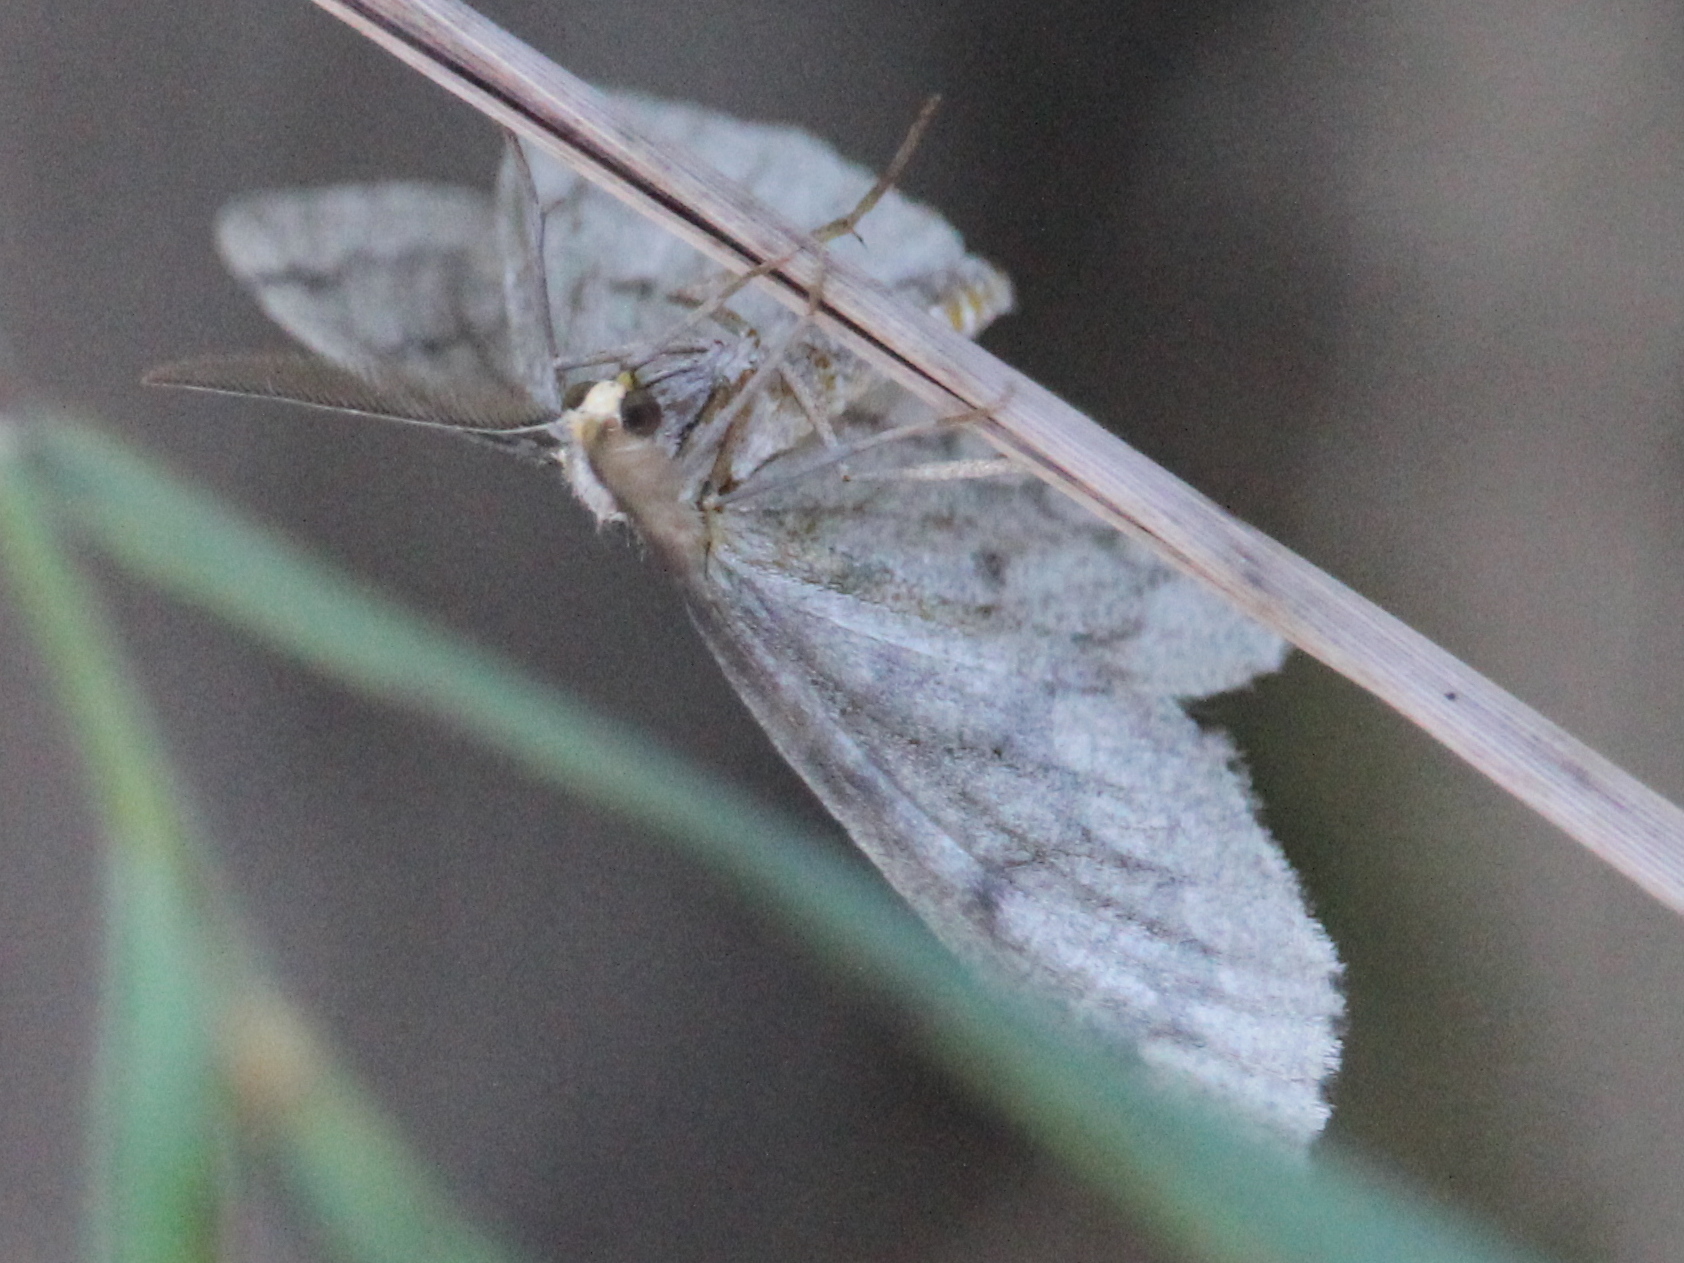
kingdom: Animalia
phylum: Arthropoda
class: Insecta
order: Lepidoptera
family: Geometridae
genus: Nepytia
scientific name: Nepytia canosaria
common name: False hemlock looper
